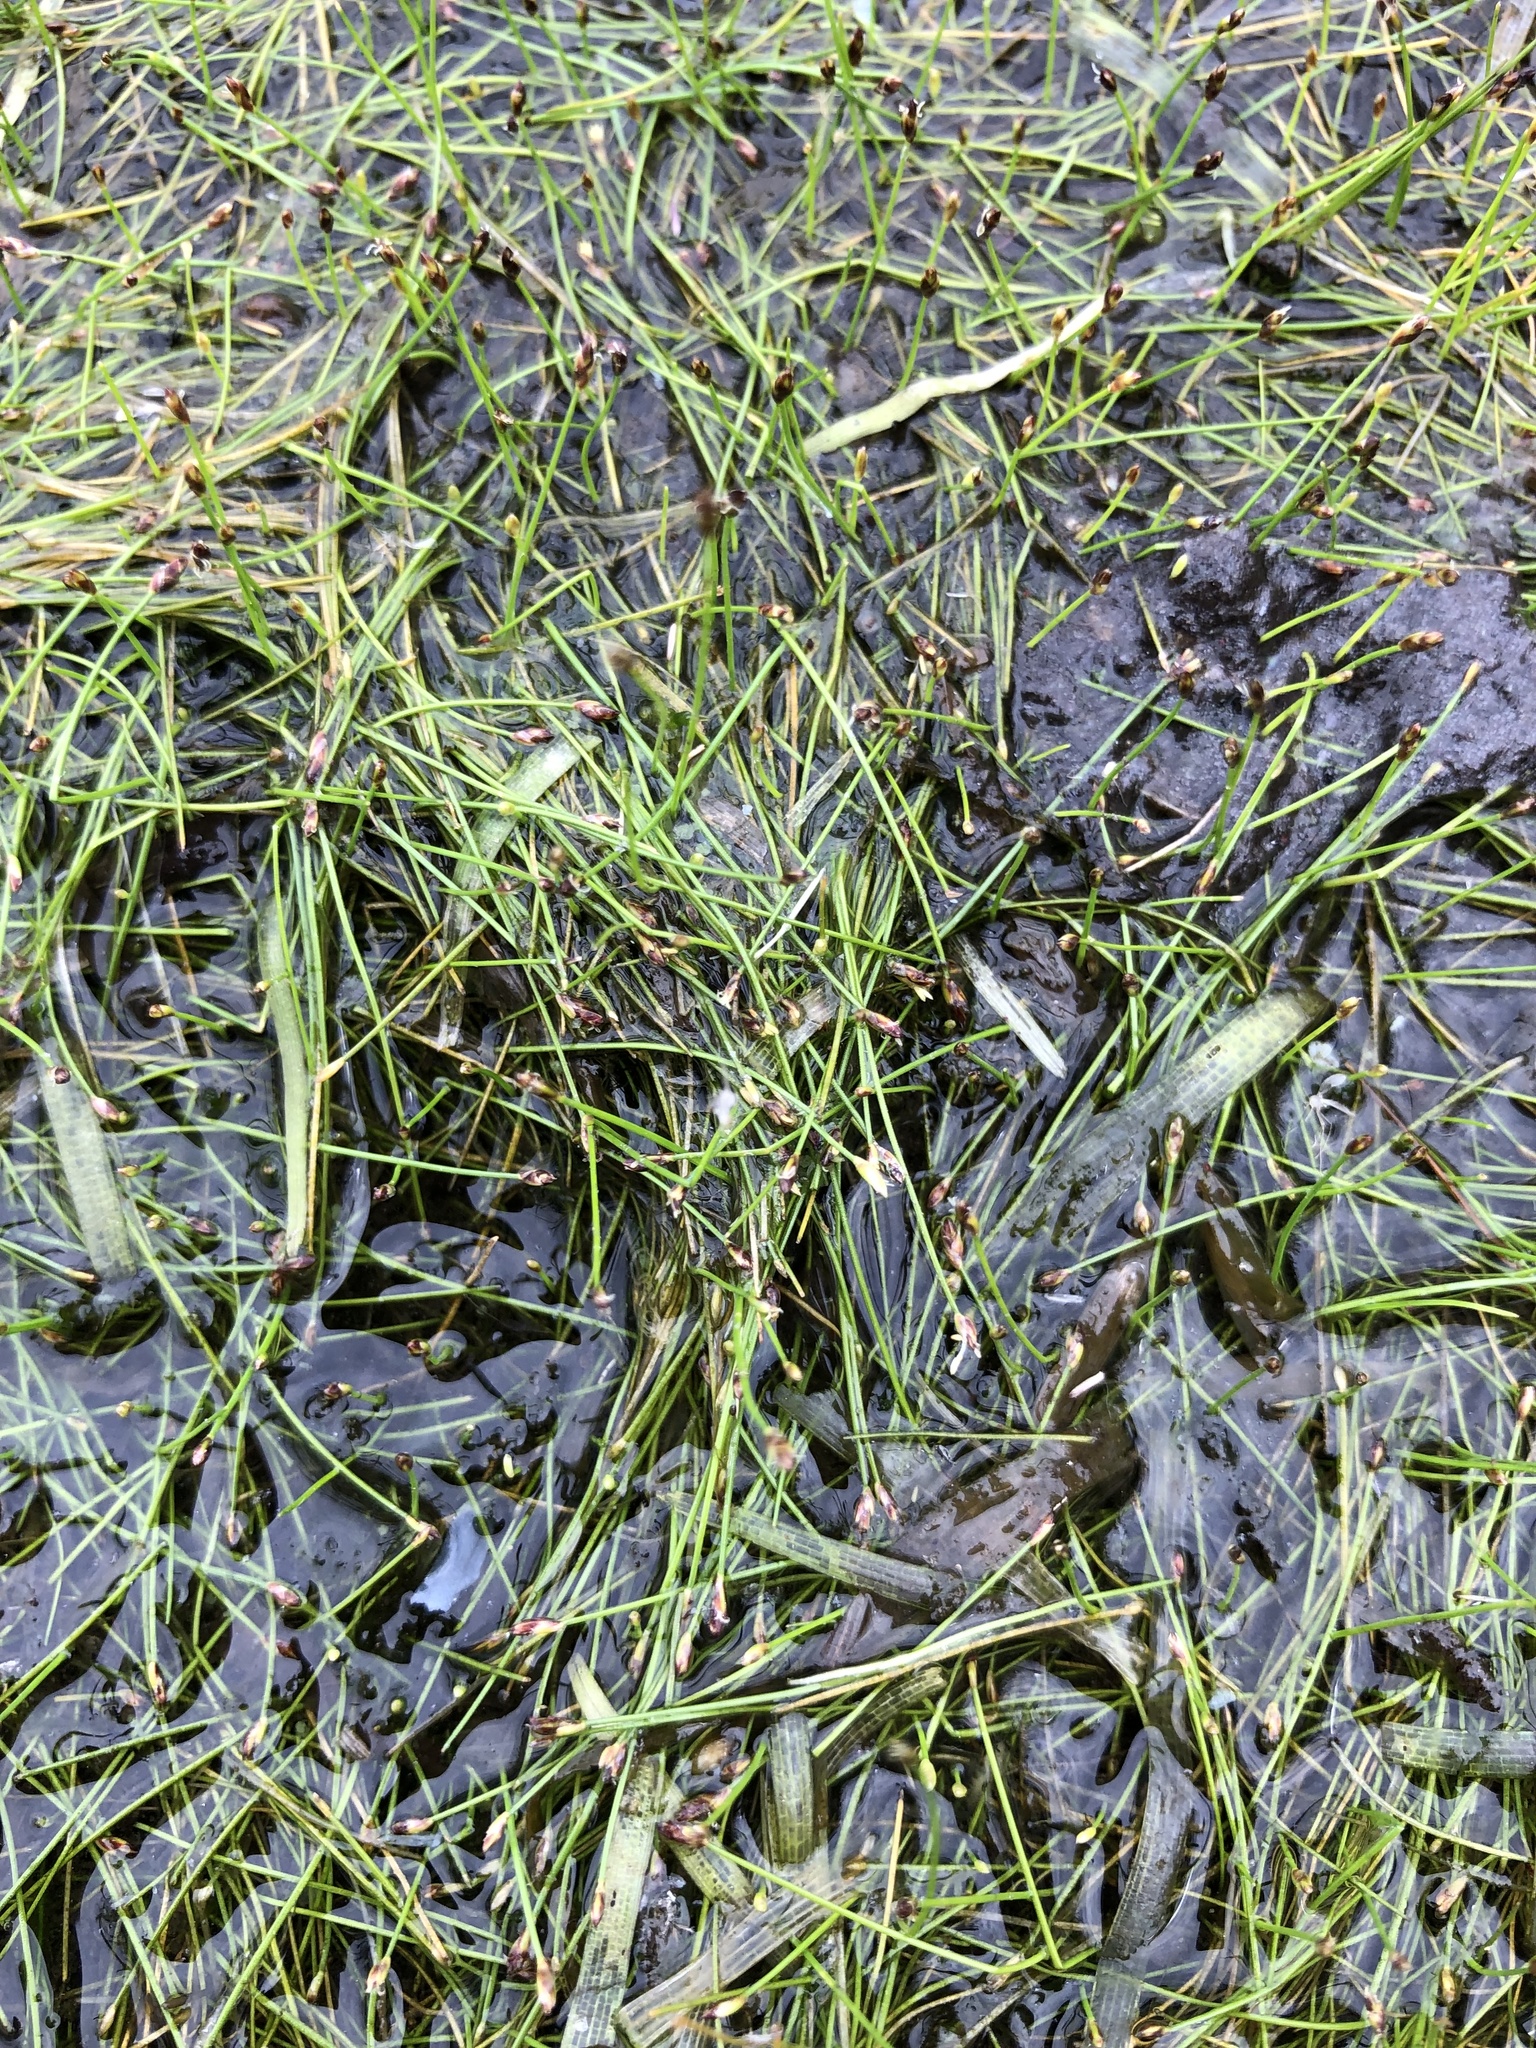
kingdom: Plantae
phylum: Tracheophyta
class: Liliopsida
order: Poales
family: Cyperaceae
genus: Eleocharis
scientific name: Eleocharis acicularis
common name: Needle spike-rush
